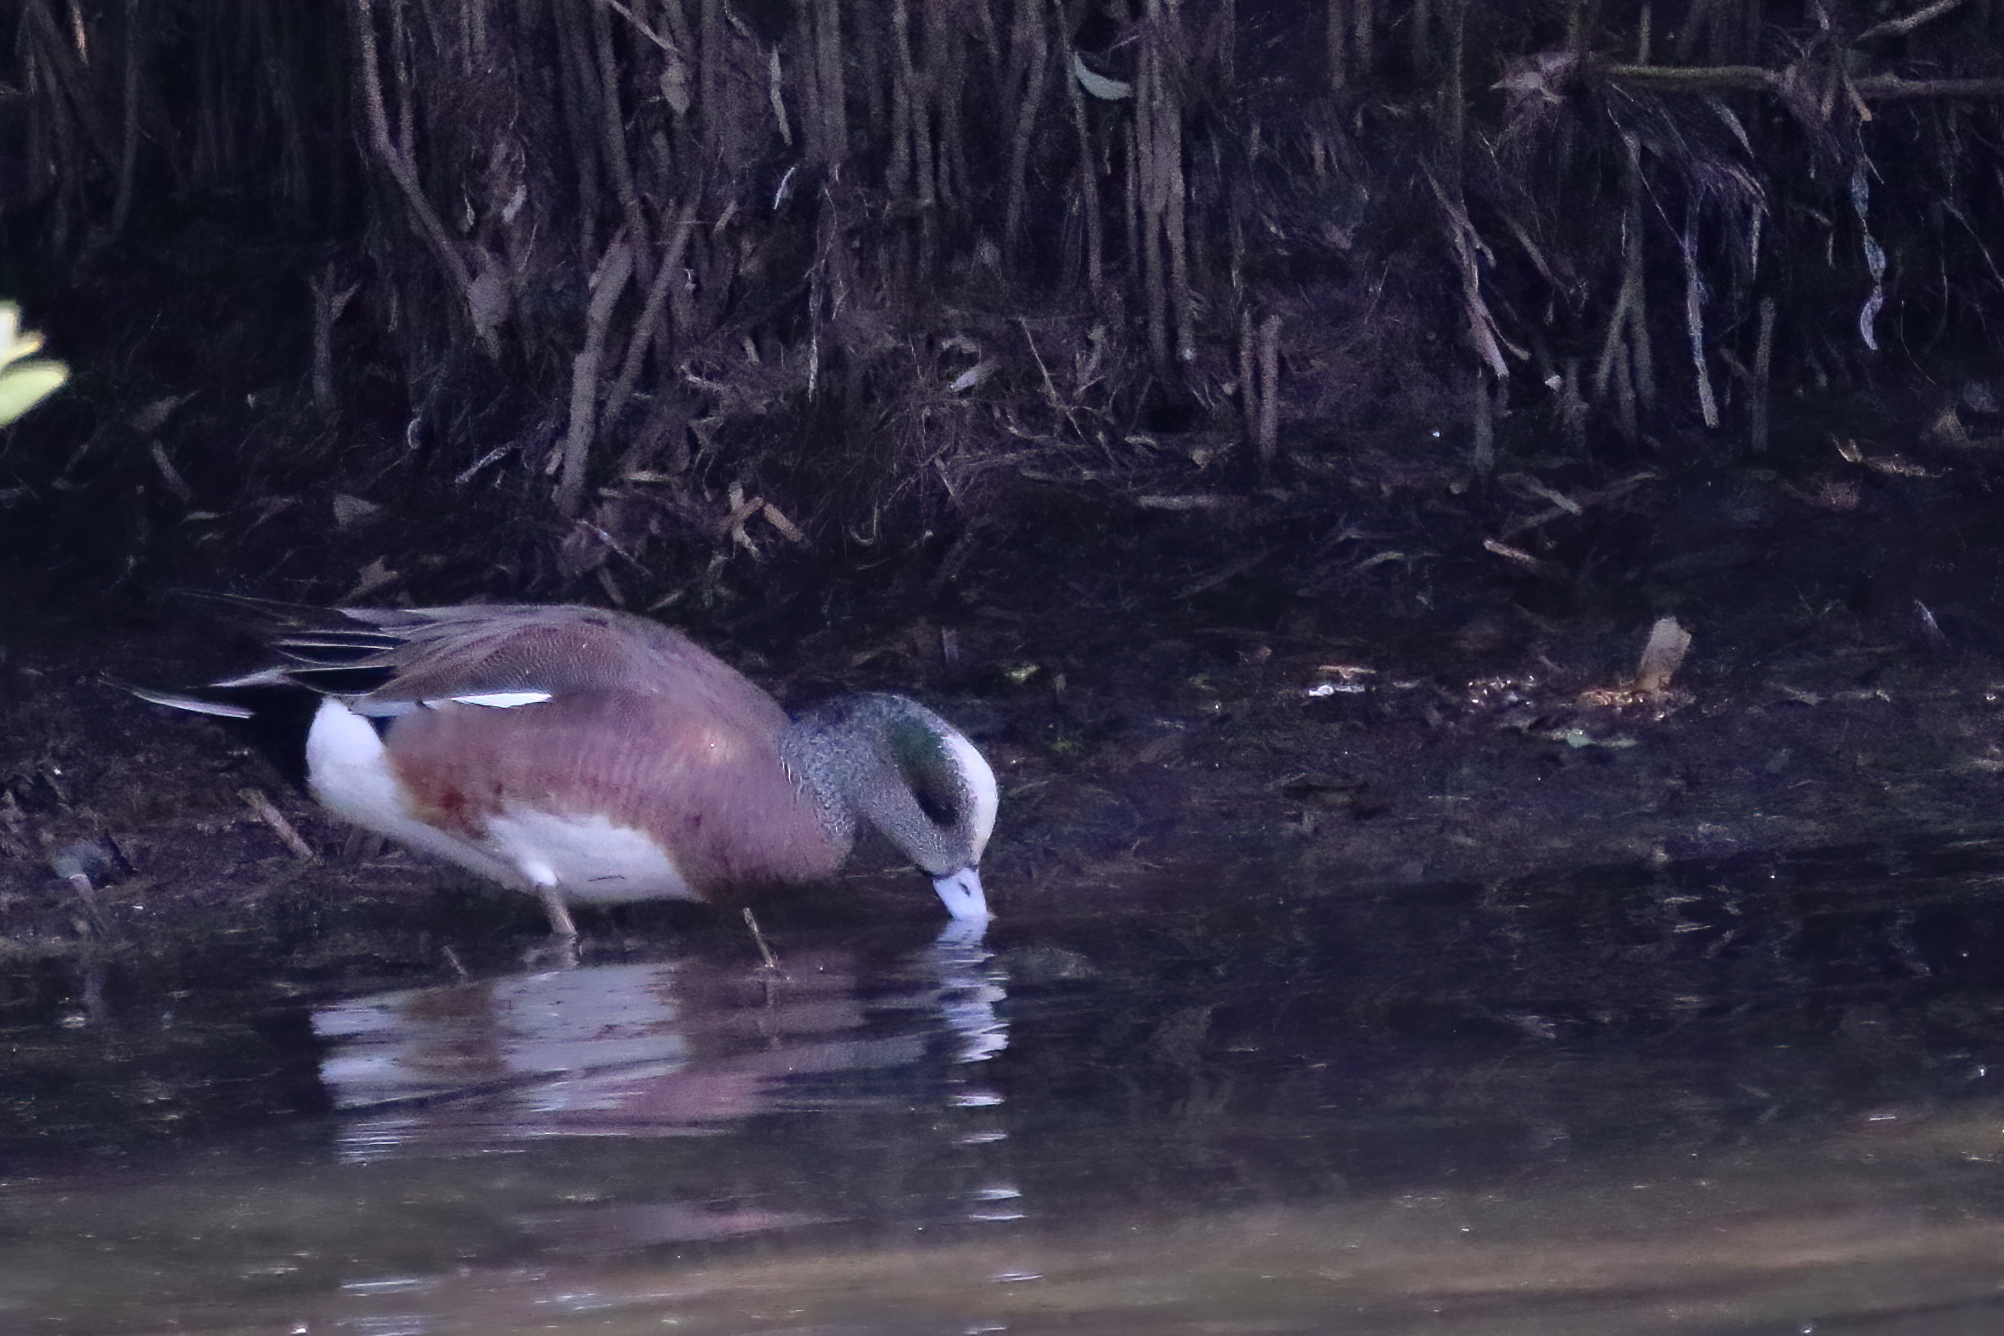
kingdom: Animalia
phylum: Chordata
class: Aves
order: Anseriformes
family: Anatidae
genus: Mareca
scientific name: Mareca americana
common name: American wigeon
